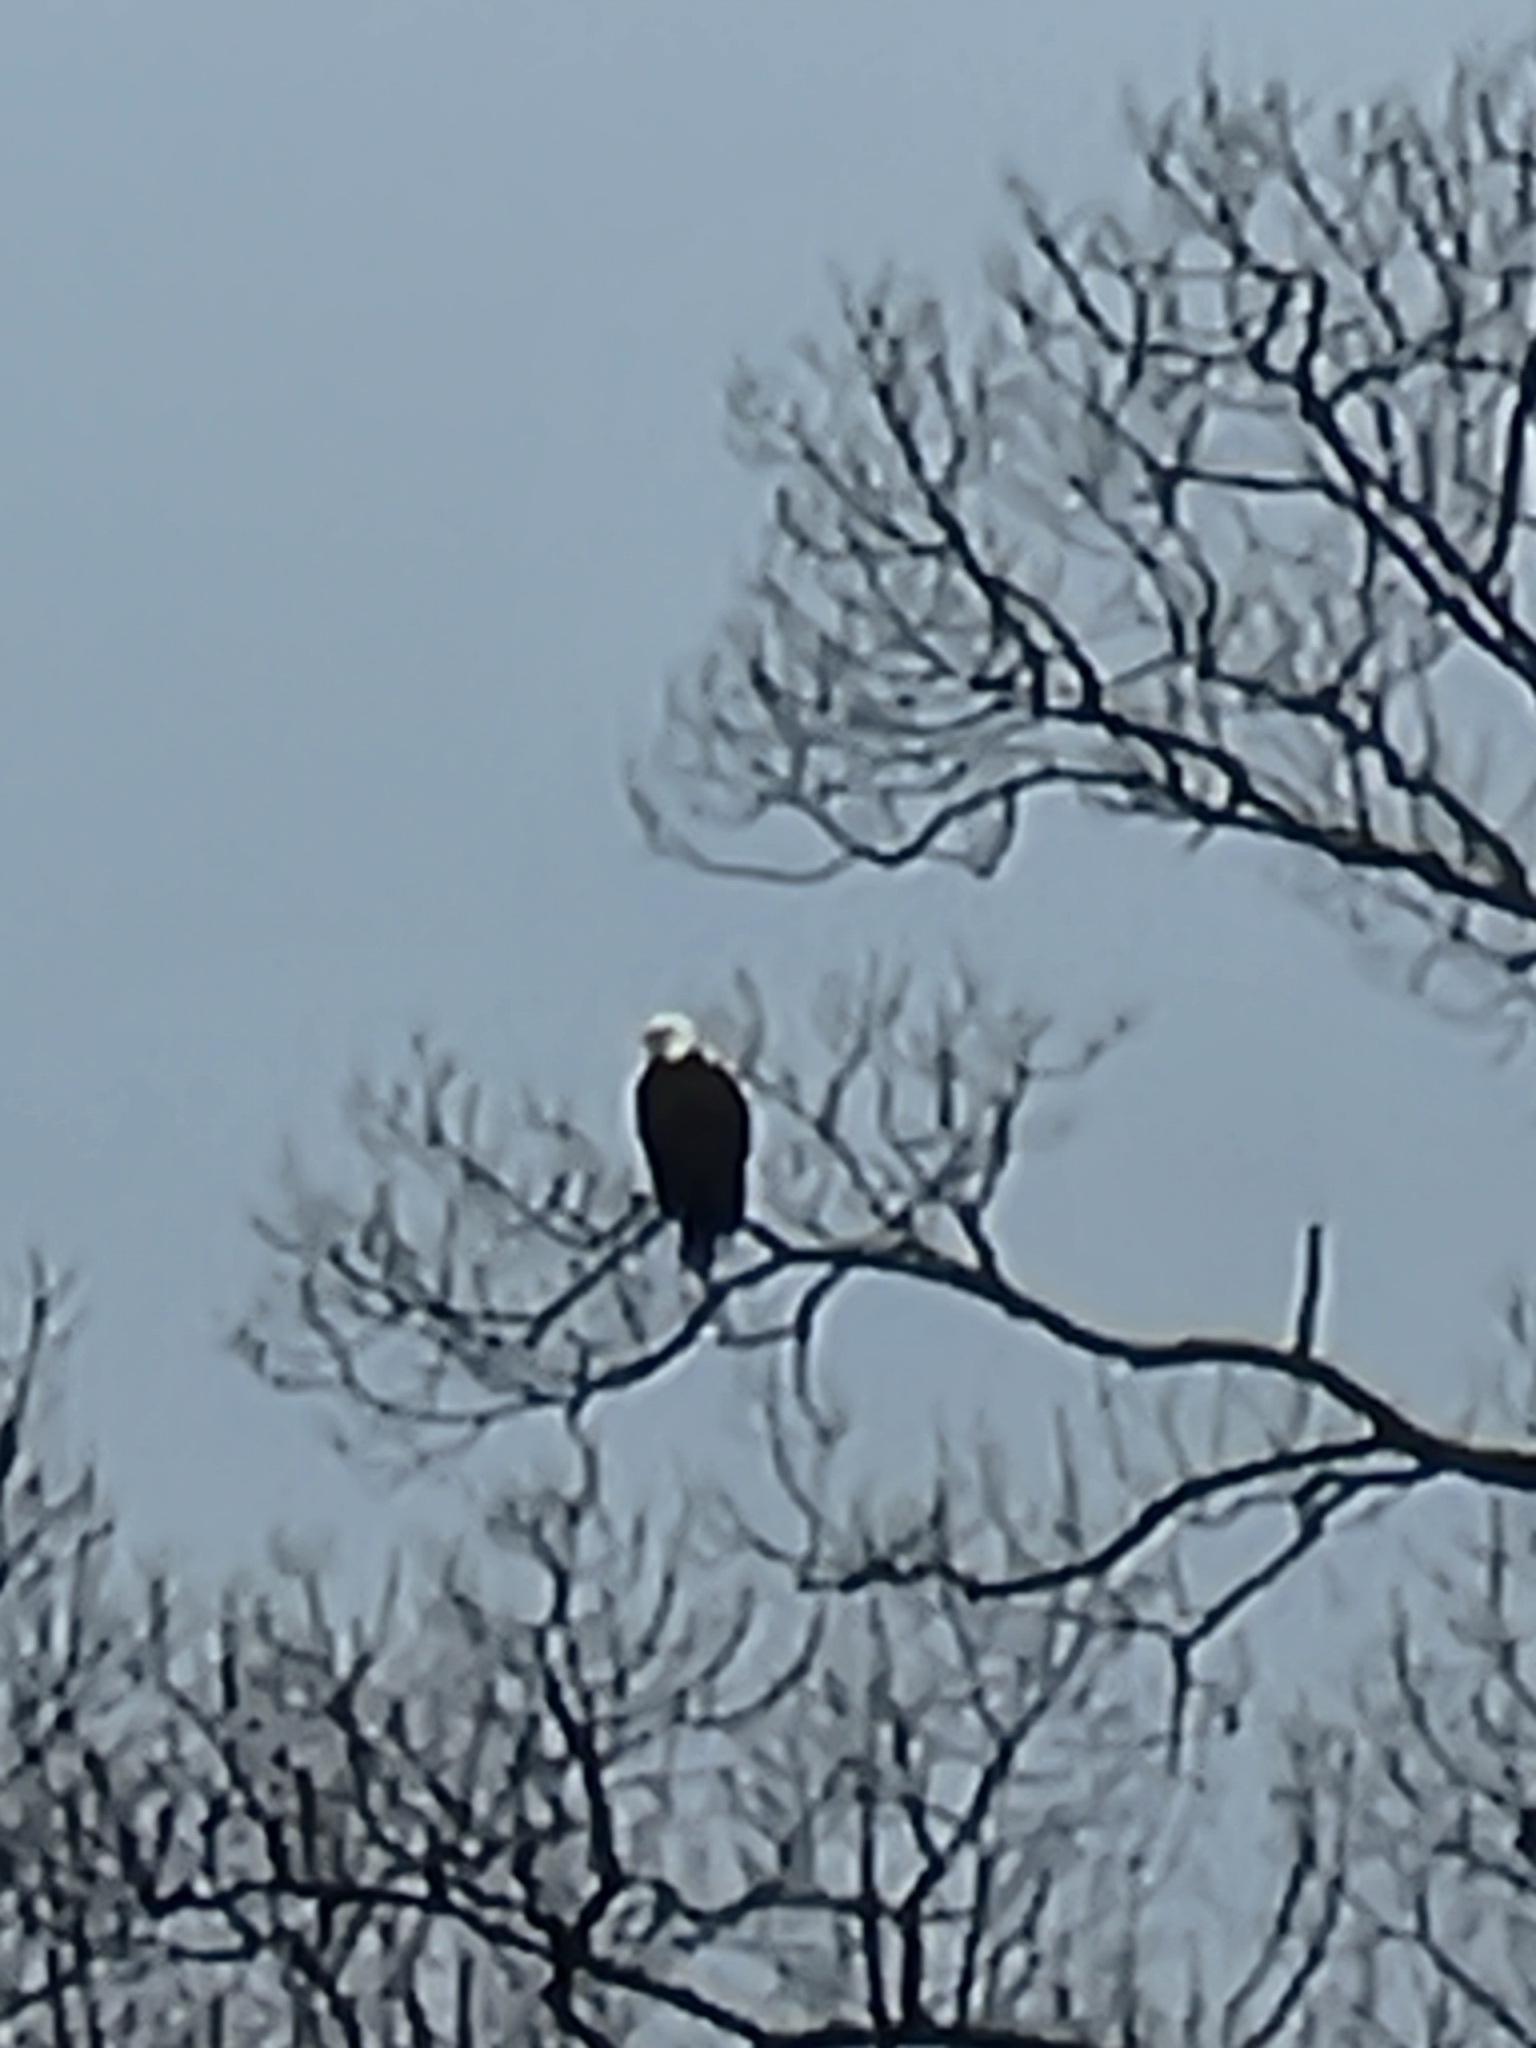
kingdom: Animalia
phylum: Chordata
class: Aves
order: Accipitriformes
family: Accipitridae
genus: Haliaeetus
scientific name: Haliaeetus leucocephalus
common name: Bald eagle
